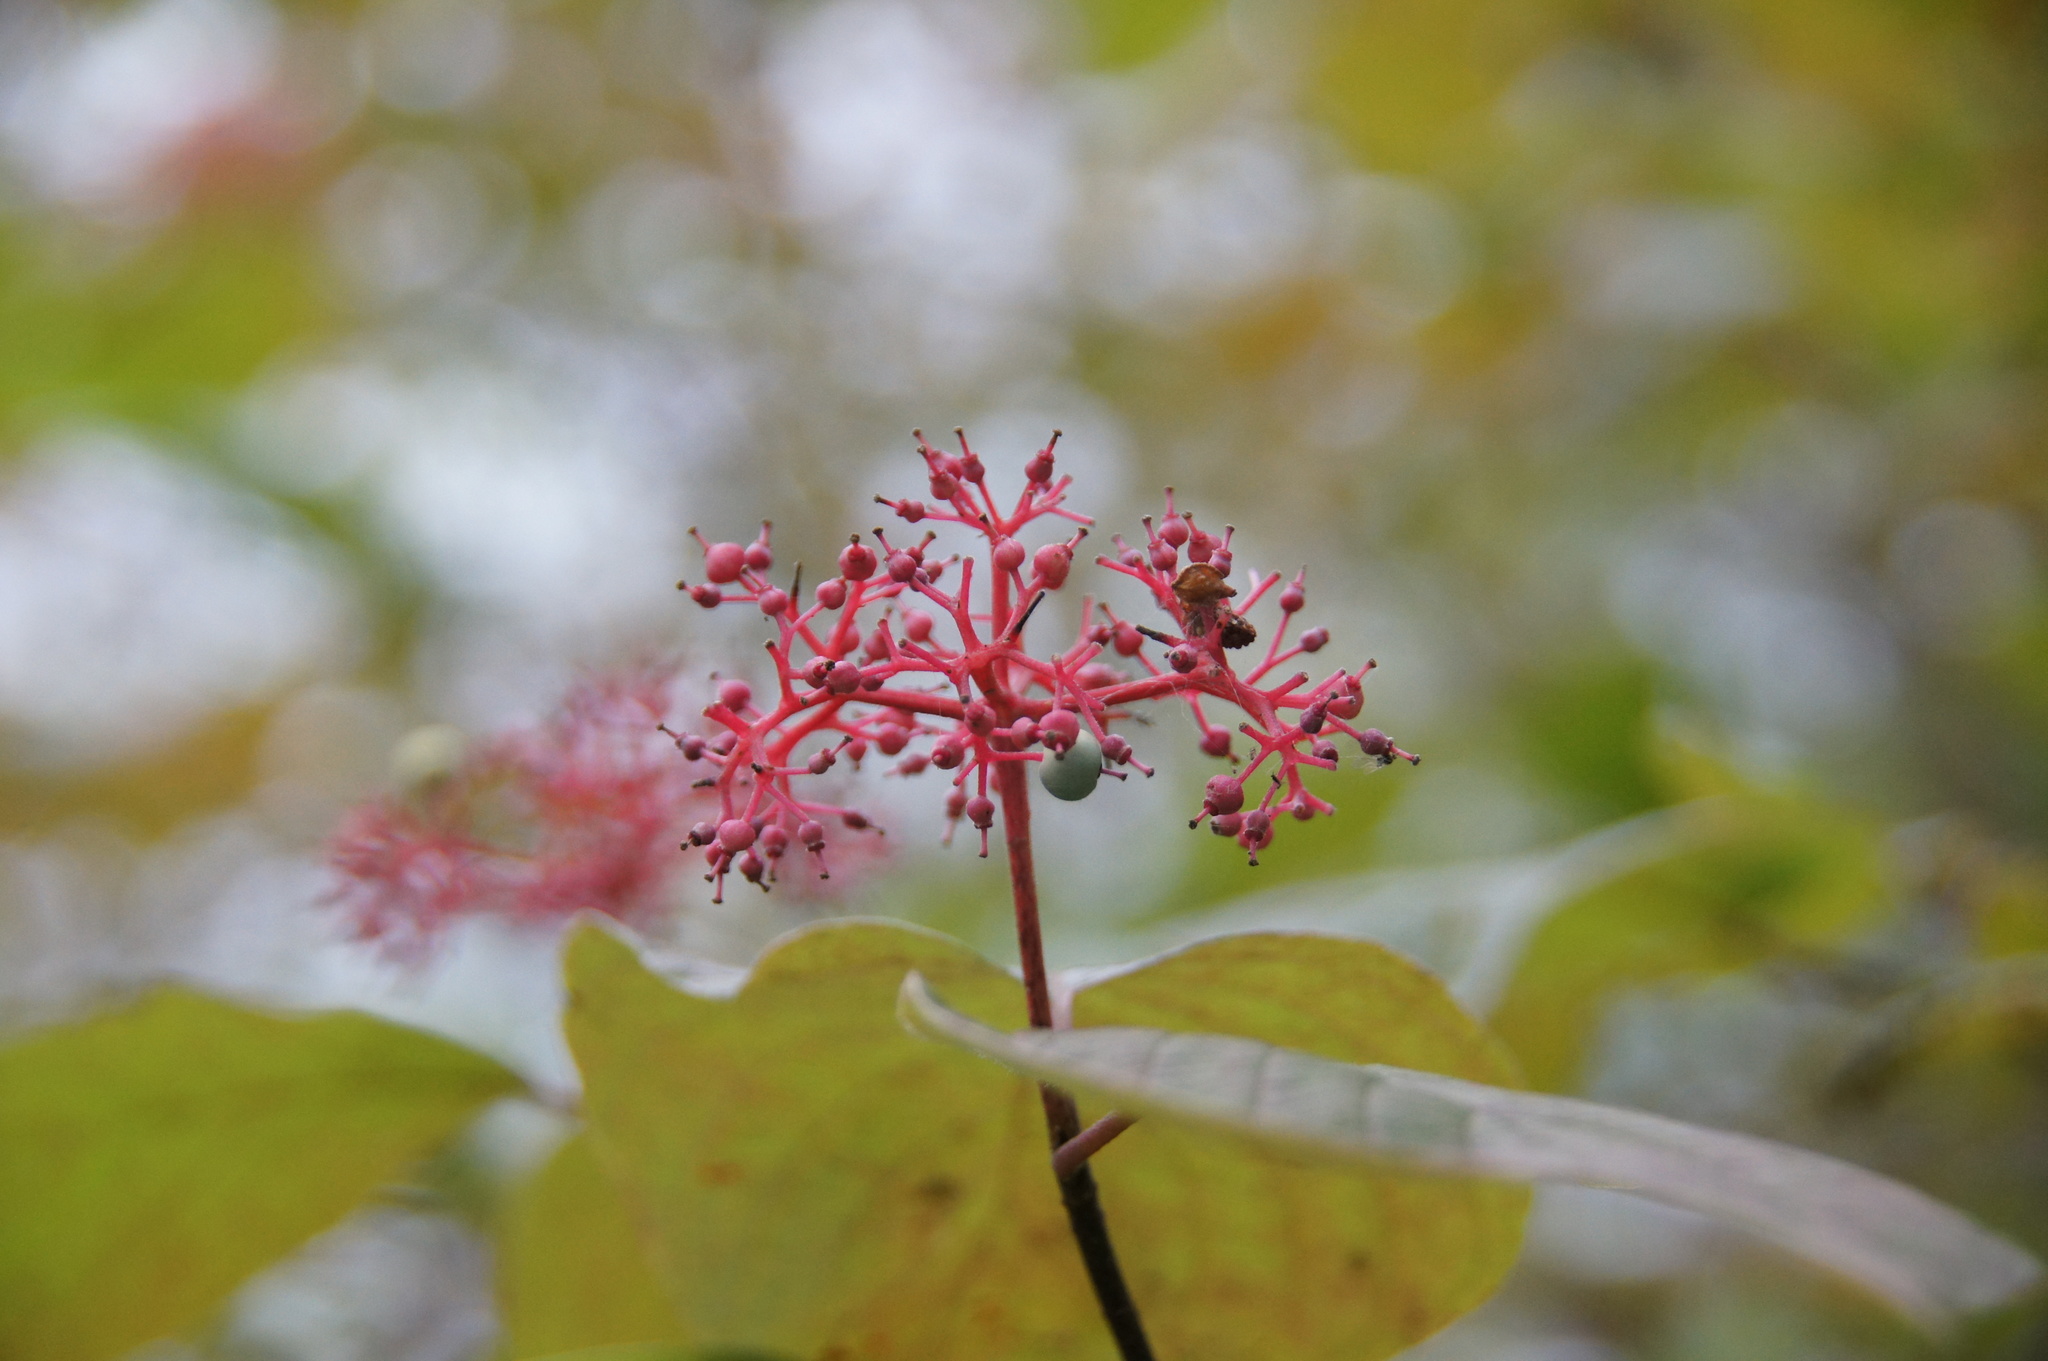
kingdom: Plantae
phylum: Tracheophyta
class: Magnoliopsida
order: Cornales
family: Cornaceae
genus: Cornus
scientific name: Cornus rugosa
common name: Round-leaf dogwood
